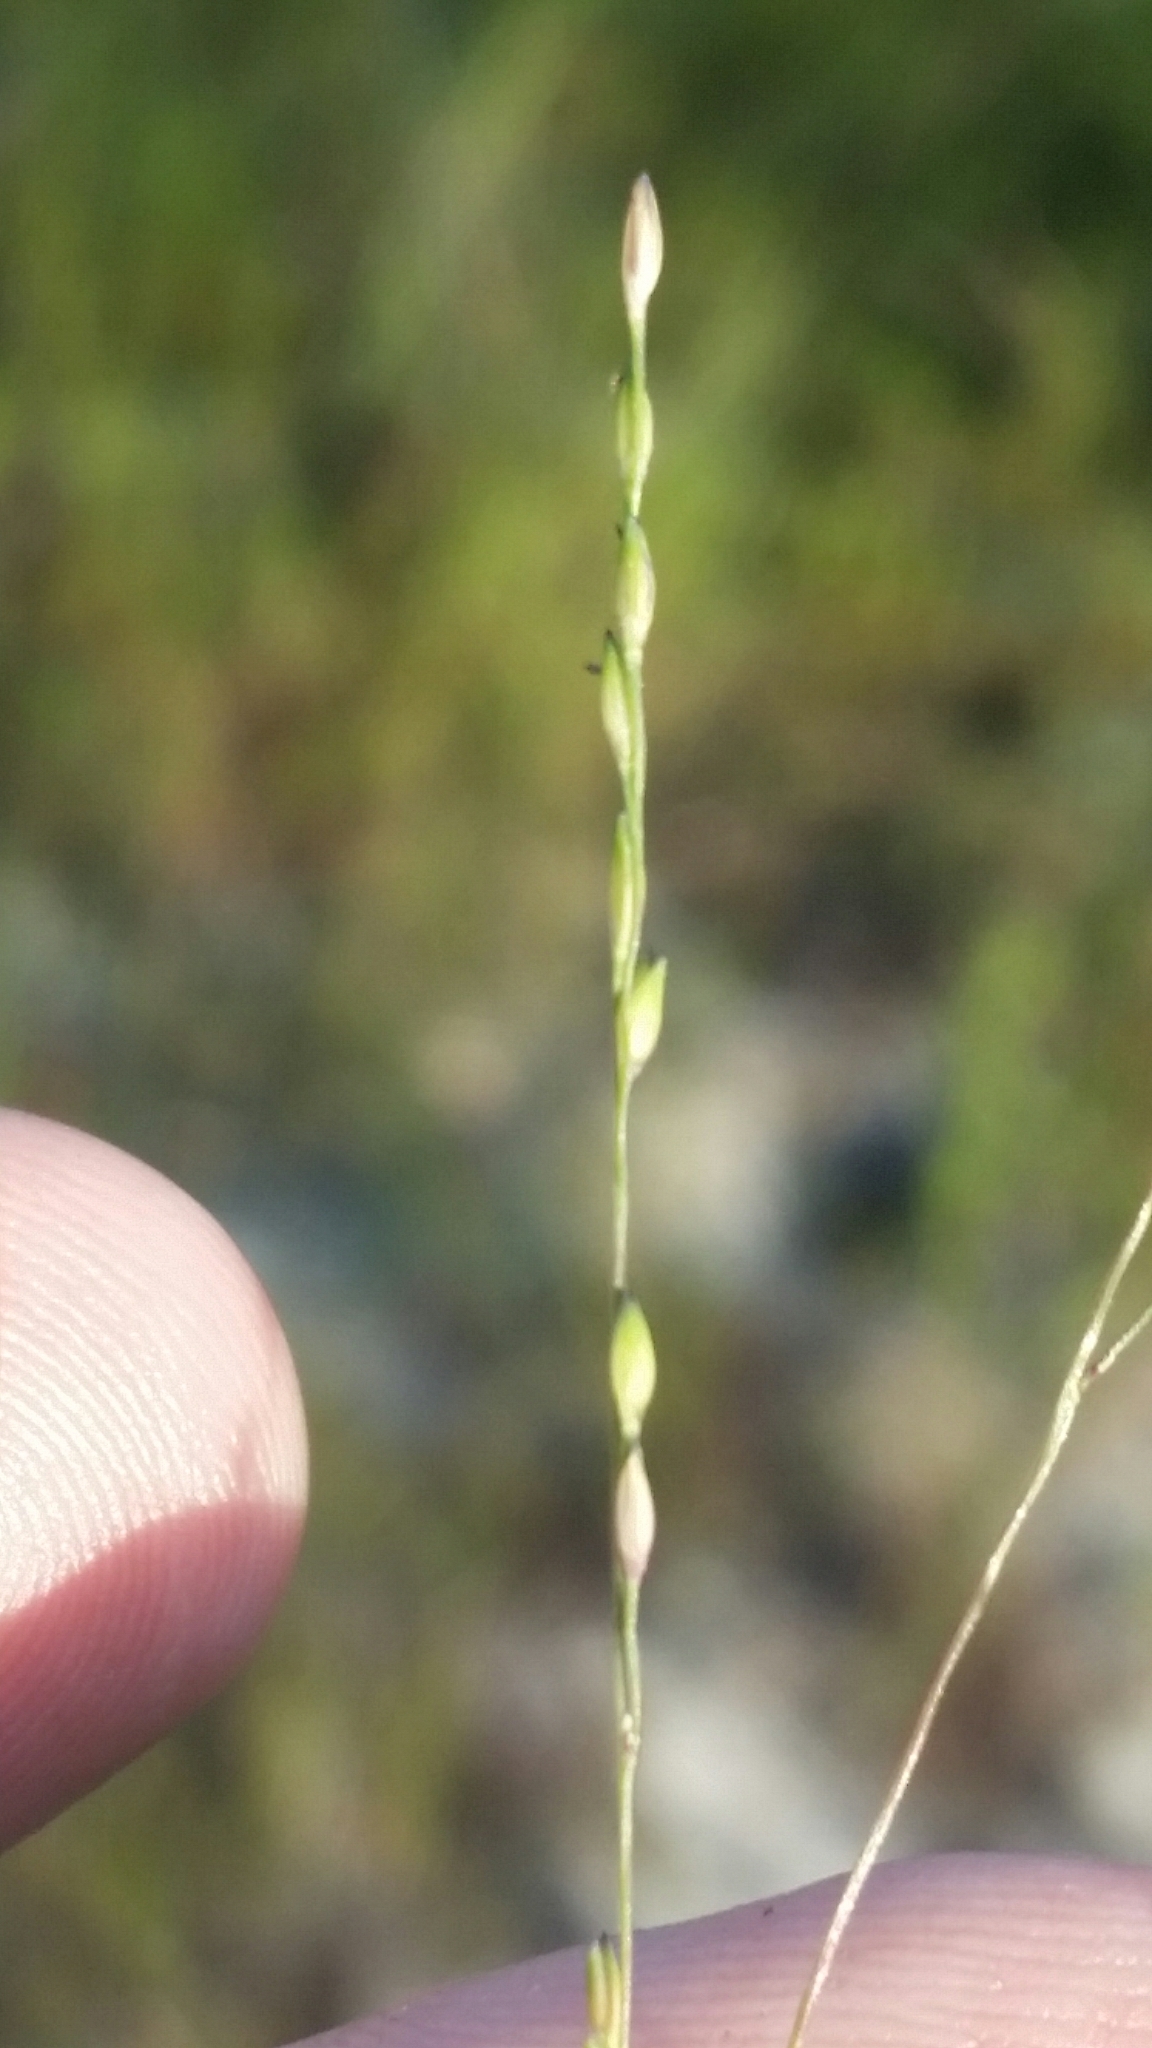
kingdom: Plantae
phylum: Tracheophyta
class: Liliopsida
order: Poales
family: Poaceae
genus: Panicum
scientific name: Panicum dichotomiflorum
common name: Autumn millet
